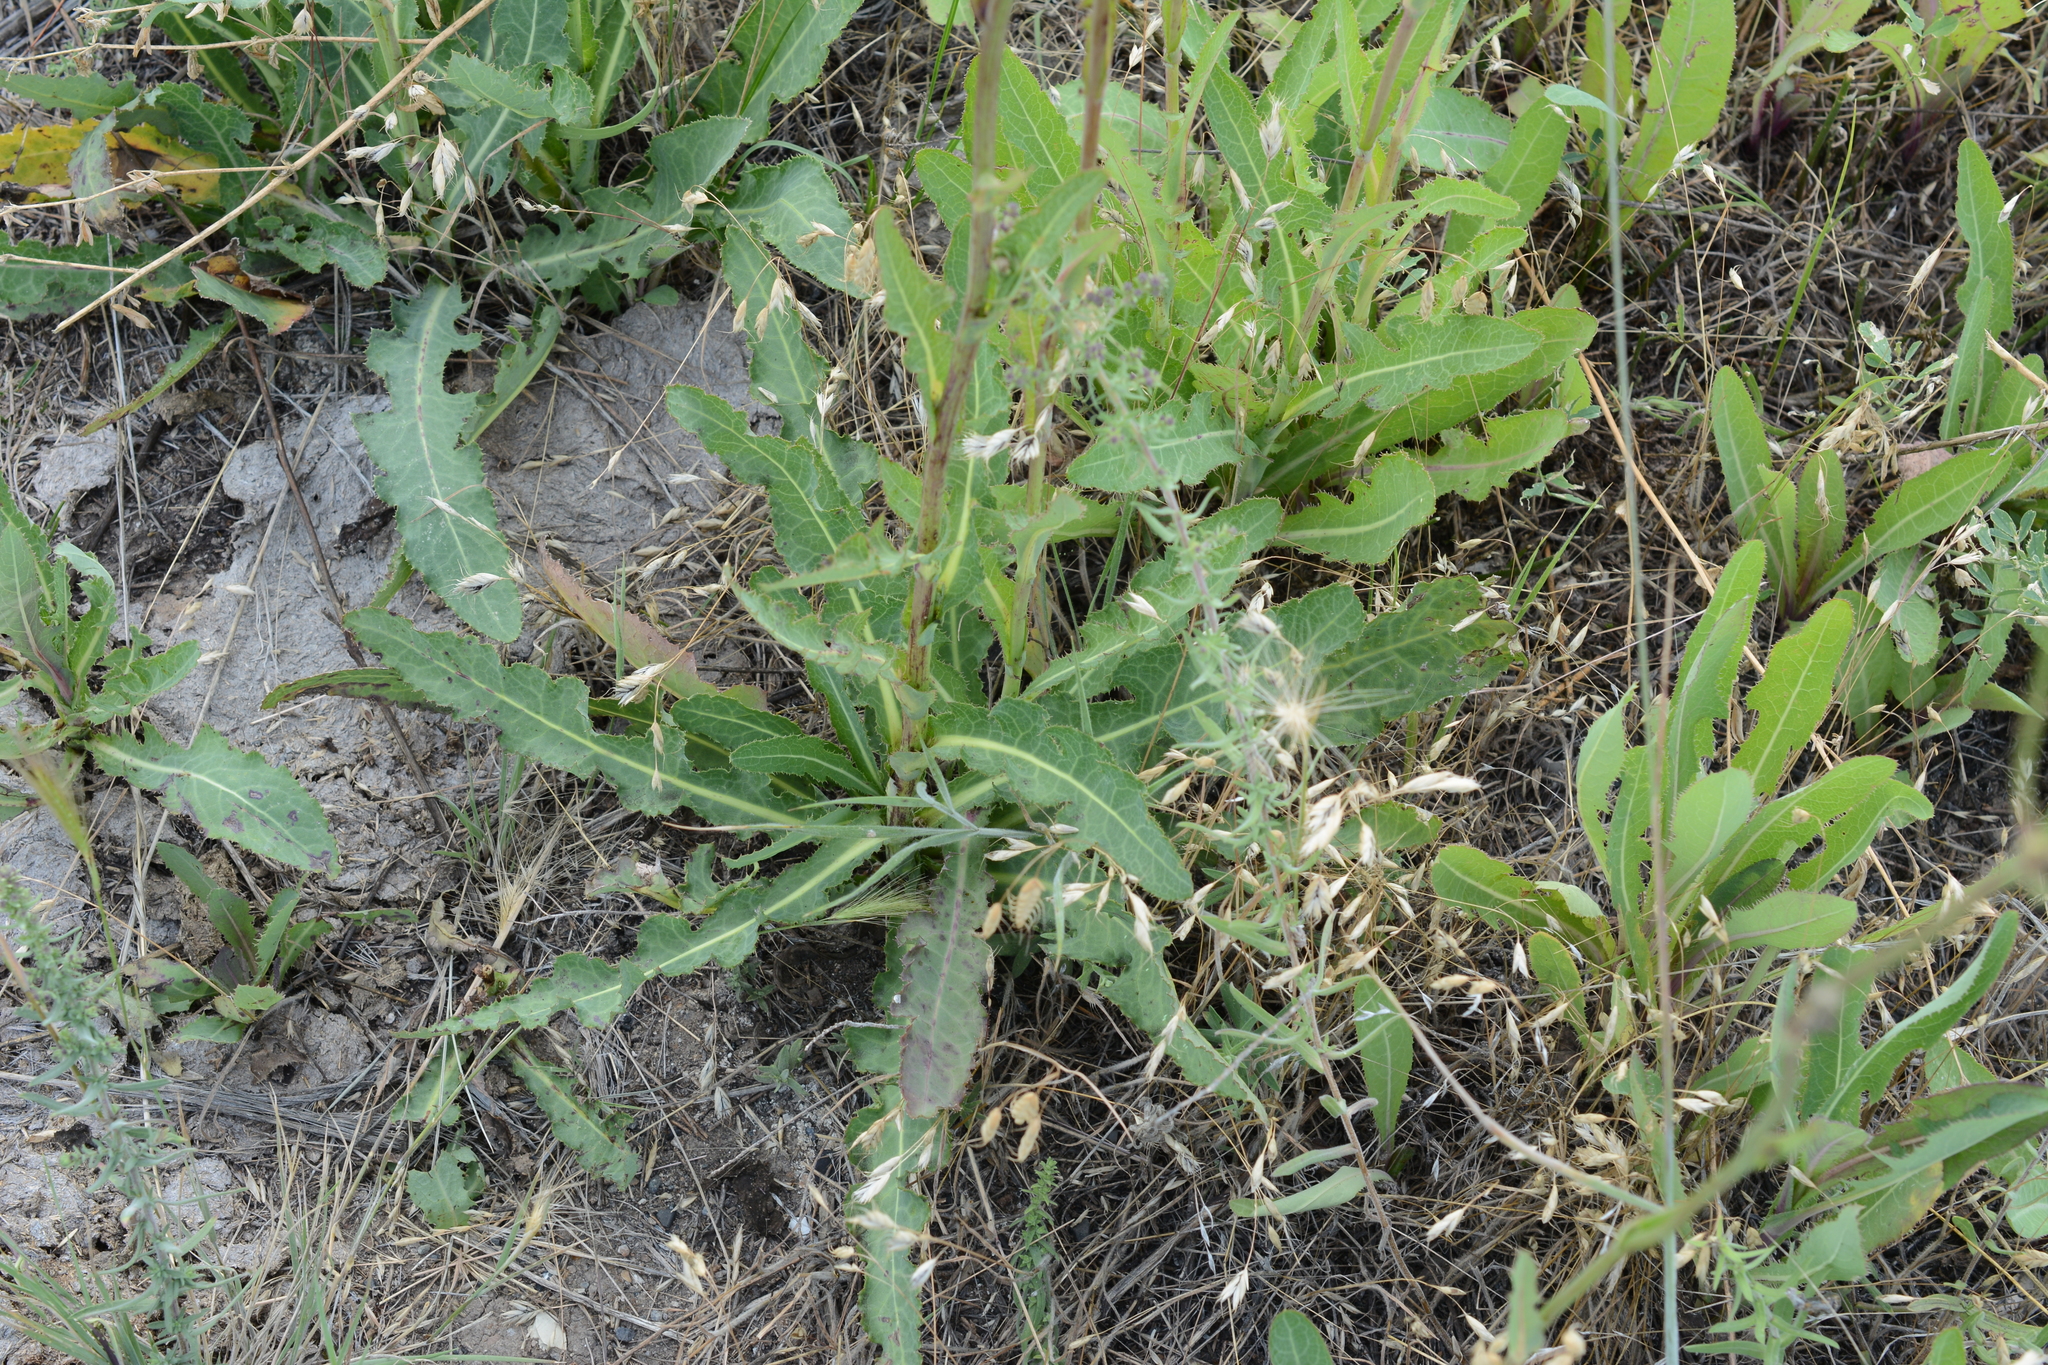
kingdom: Plantae
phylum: Tracheophyta
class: Magnoliopsida
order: Asterales
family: Asteraceae
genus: Sonchus
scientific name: Sonchus arvensis
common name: Perennial sow-thistle
